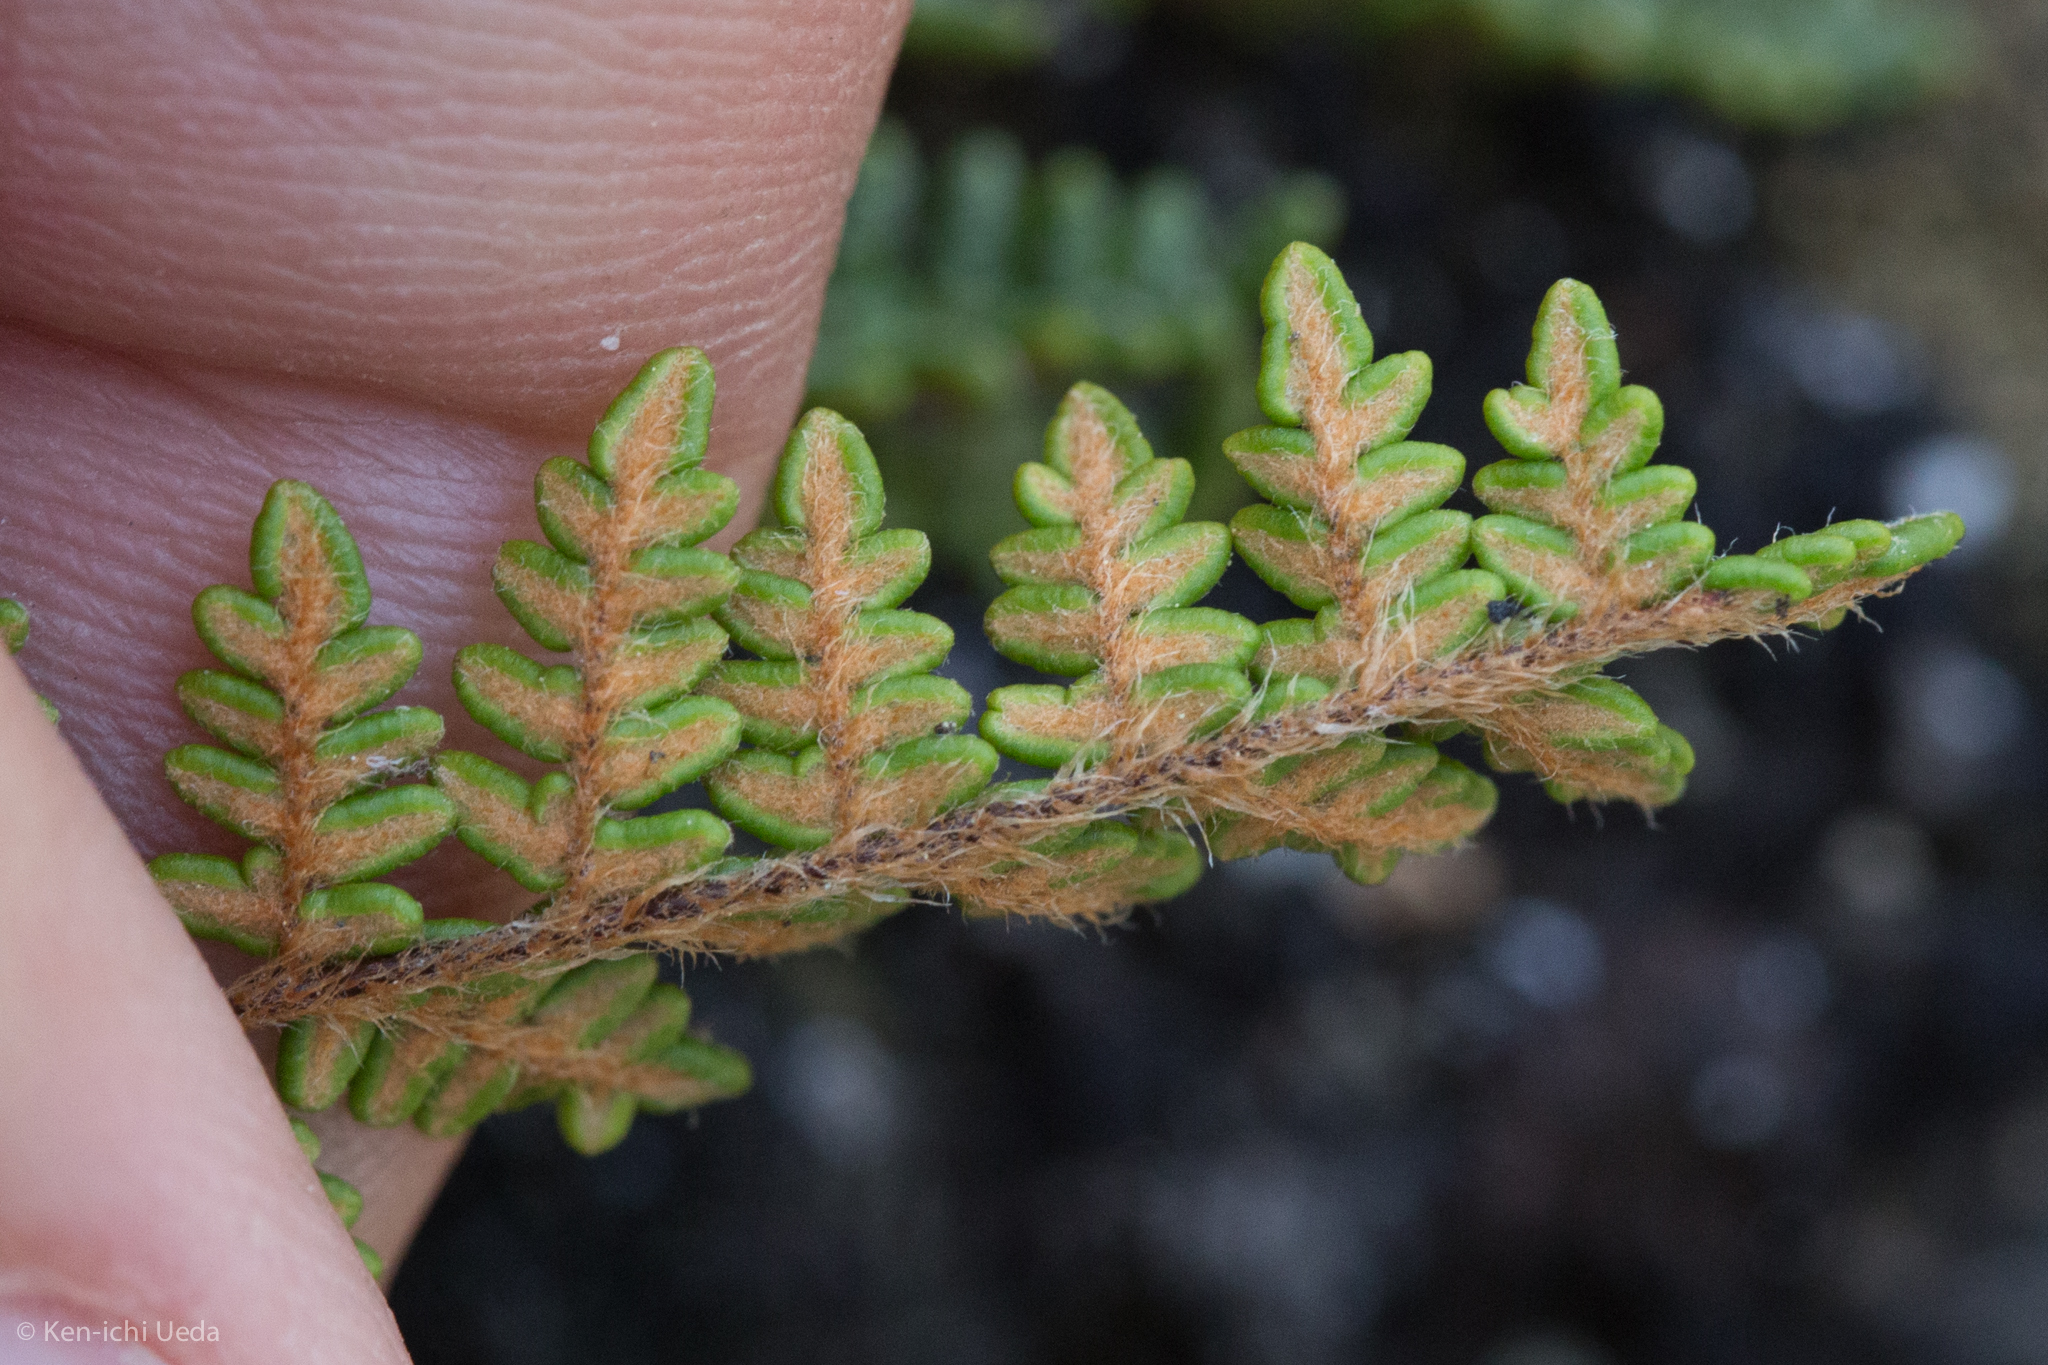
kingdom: Plantae
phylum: Tracheophyta
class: Polypodiopsida
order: Polypodiales
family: Pteridaceae
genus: Myriopteris
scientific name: Myriopteris gracillima
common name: Lace fern
